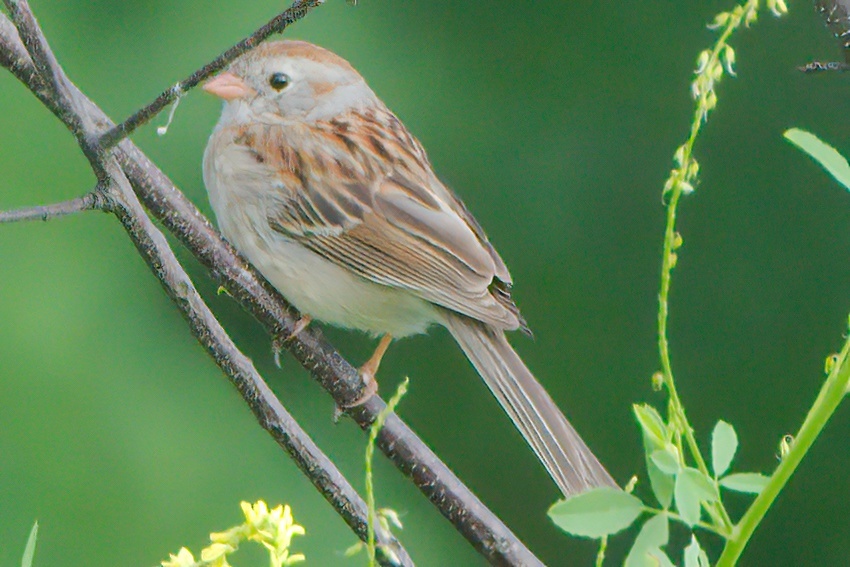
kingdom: Animalia
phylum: Chordata
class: Aves
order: Passeriformes
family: Passerellidae
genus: Spizella
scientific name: Spizella pusilla
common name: Field sparrow
